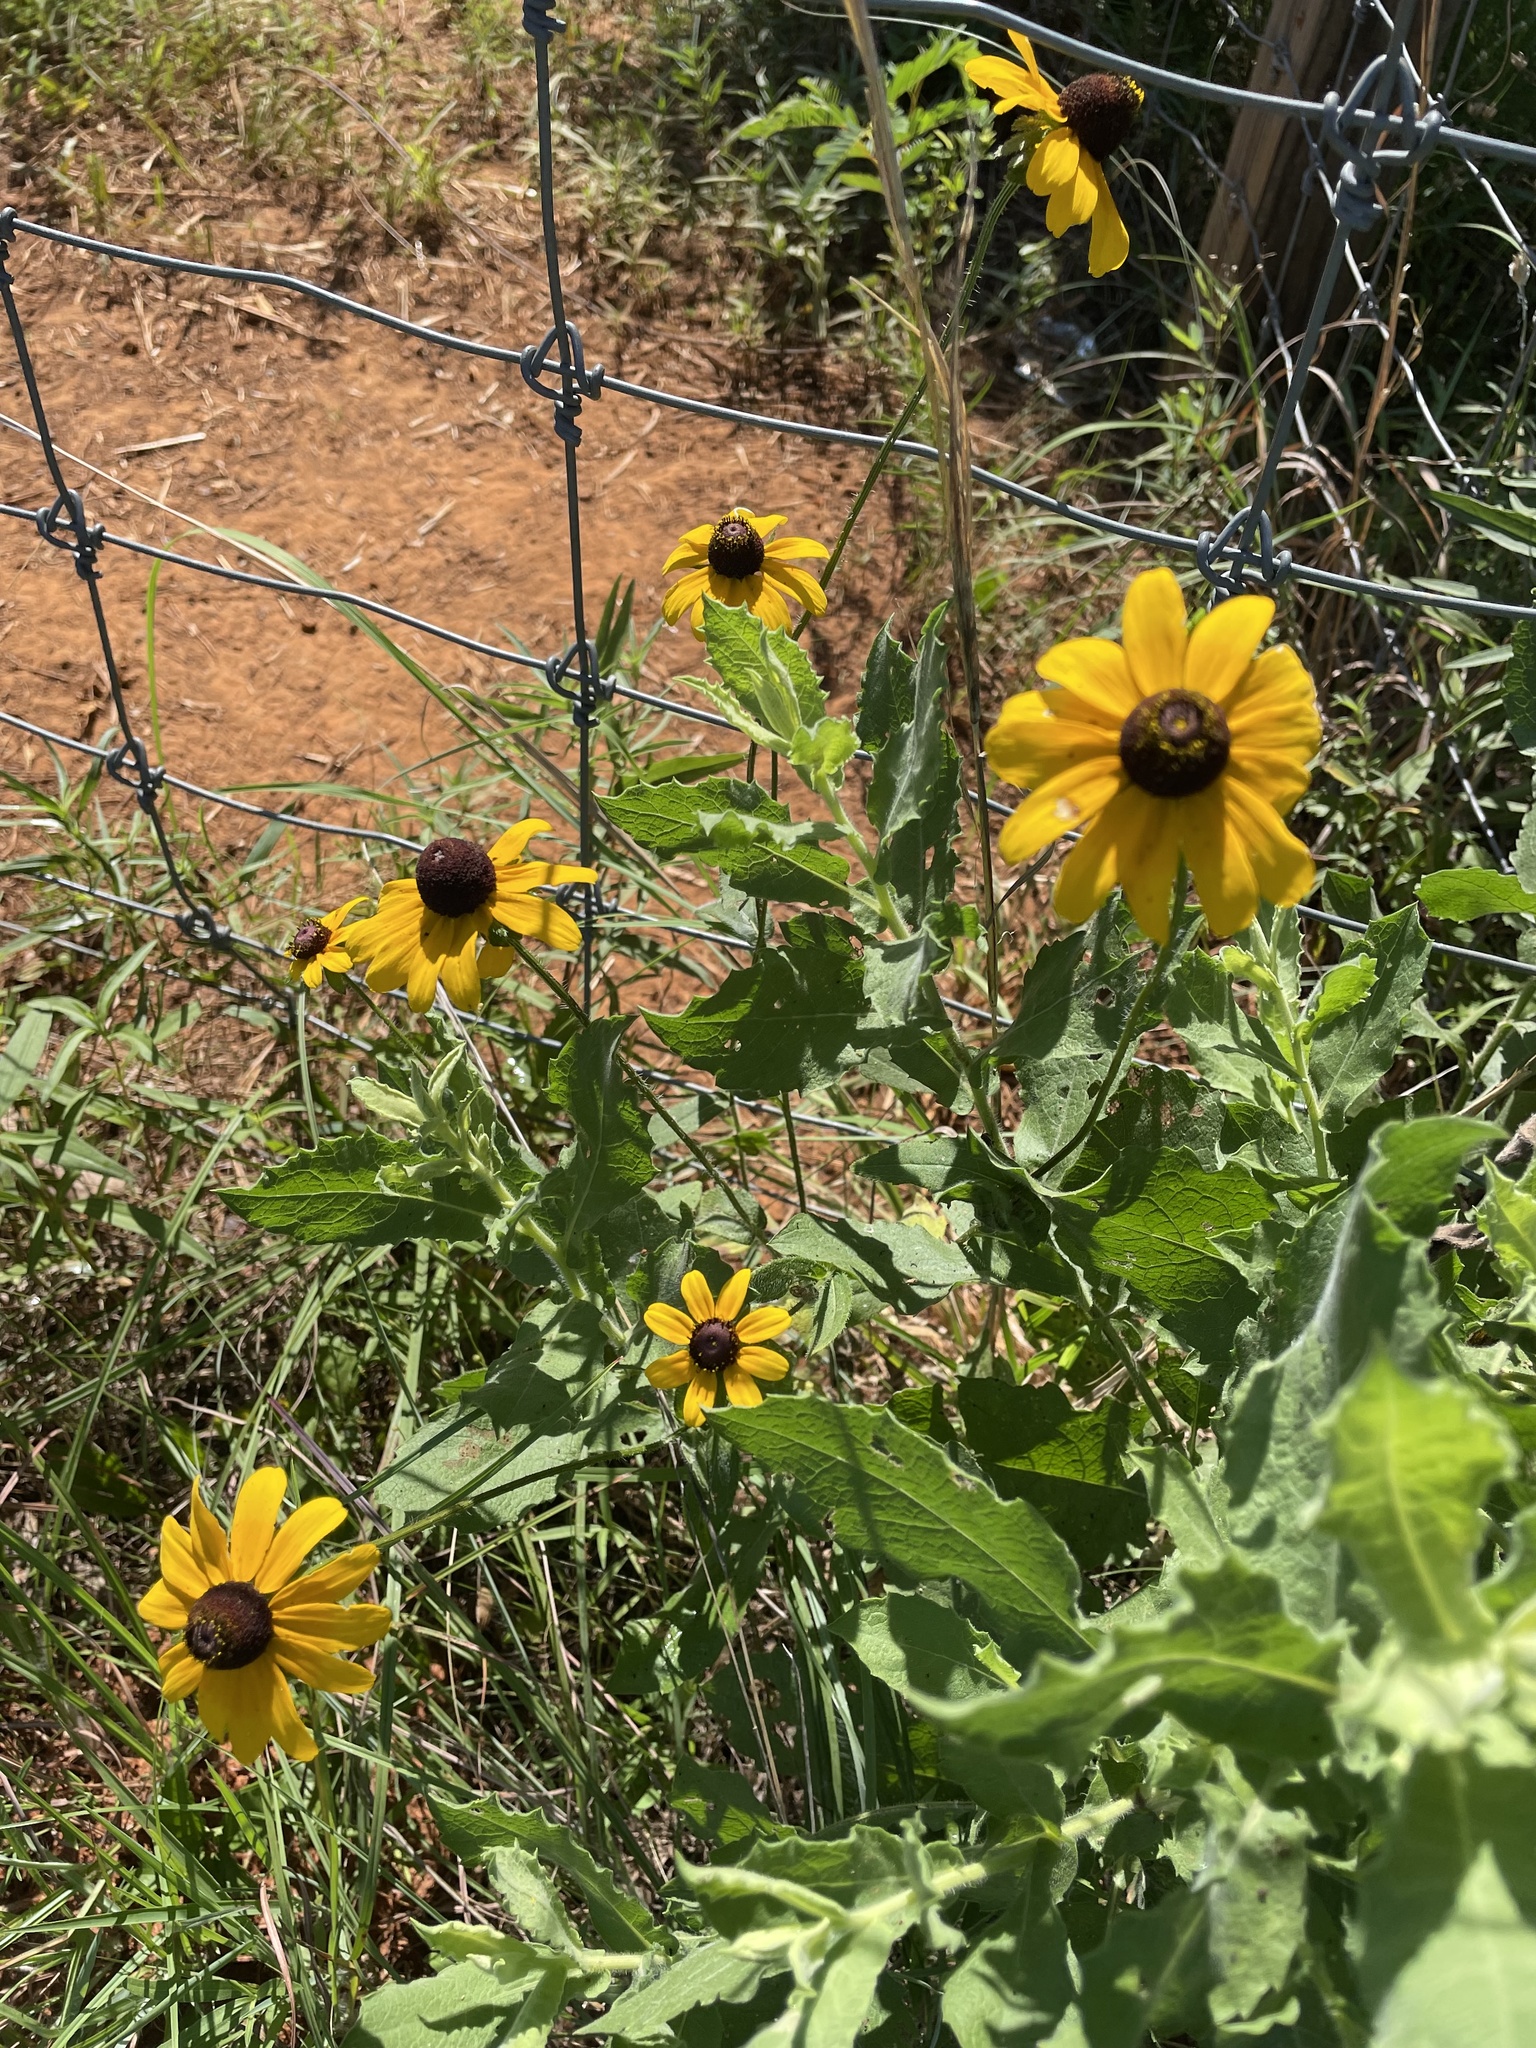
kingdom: Plantae
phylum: Tracheophyta
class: Magnoliopsida
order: Asterales
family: Asteraceae
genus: Rudbeckia
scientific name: Rudbeckia hirta
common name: Black-eyed-susan
